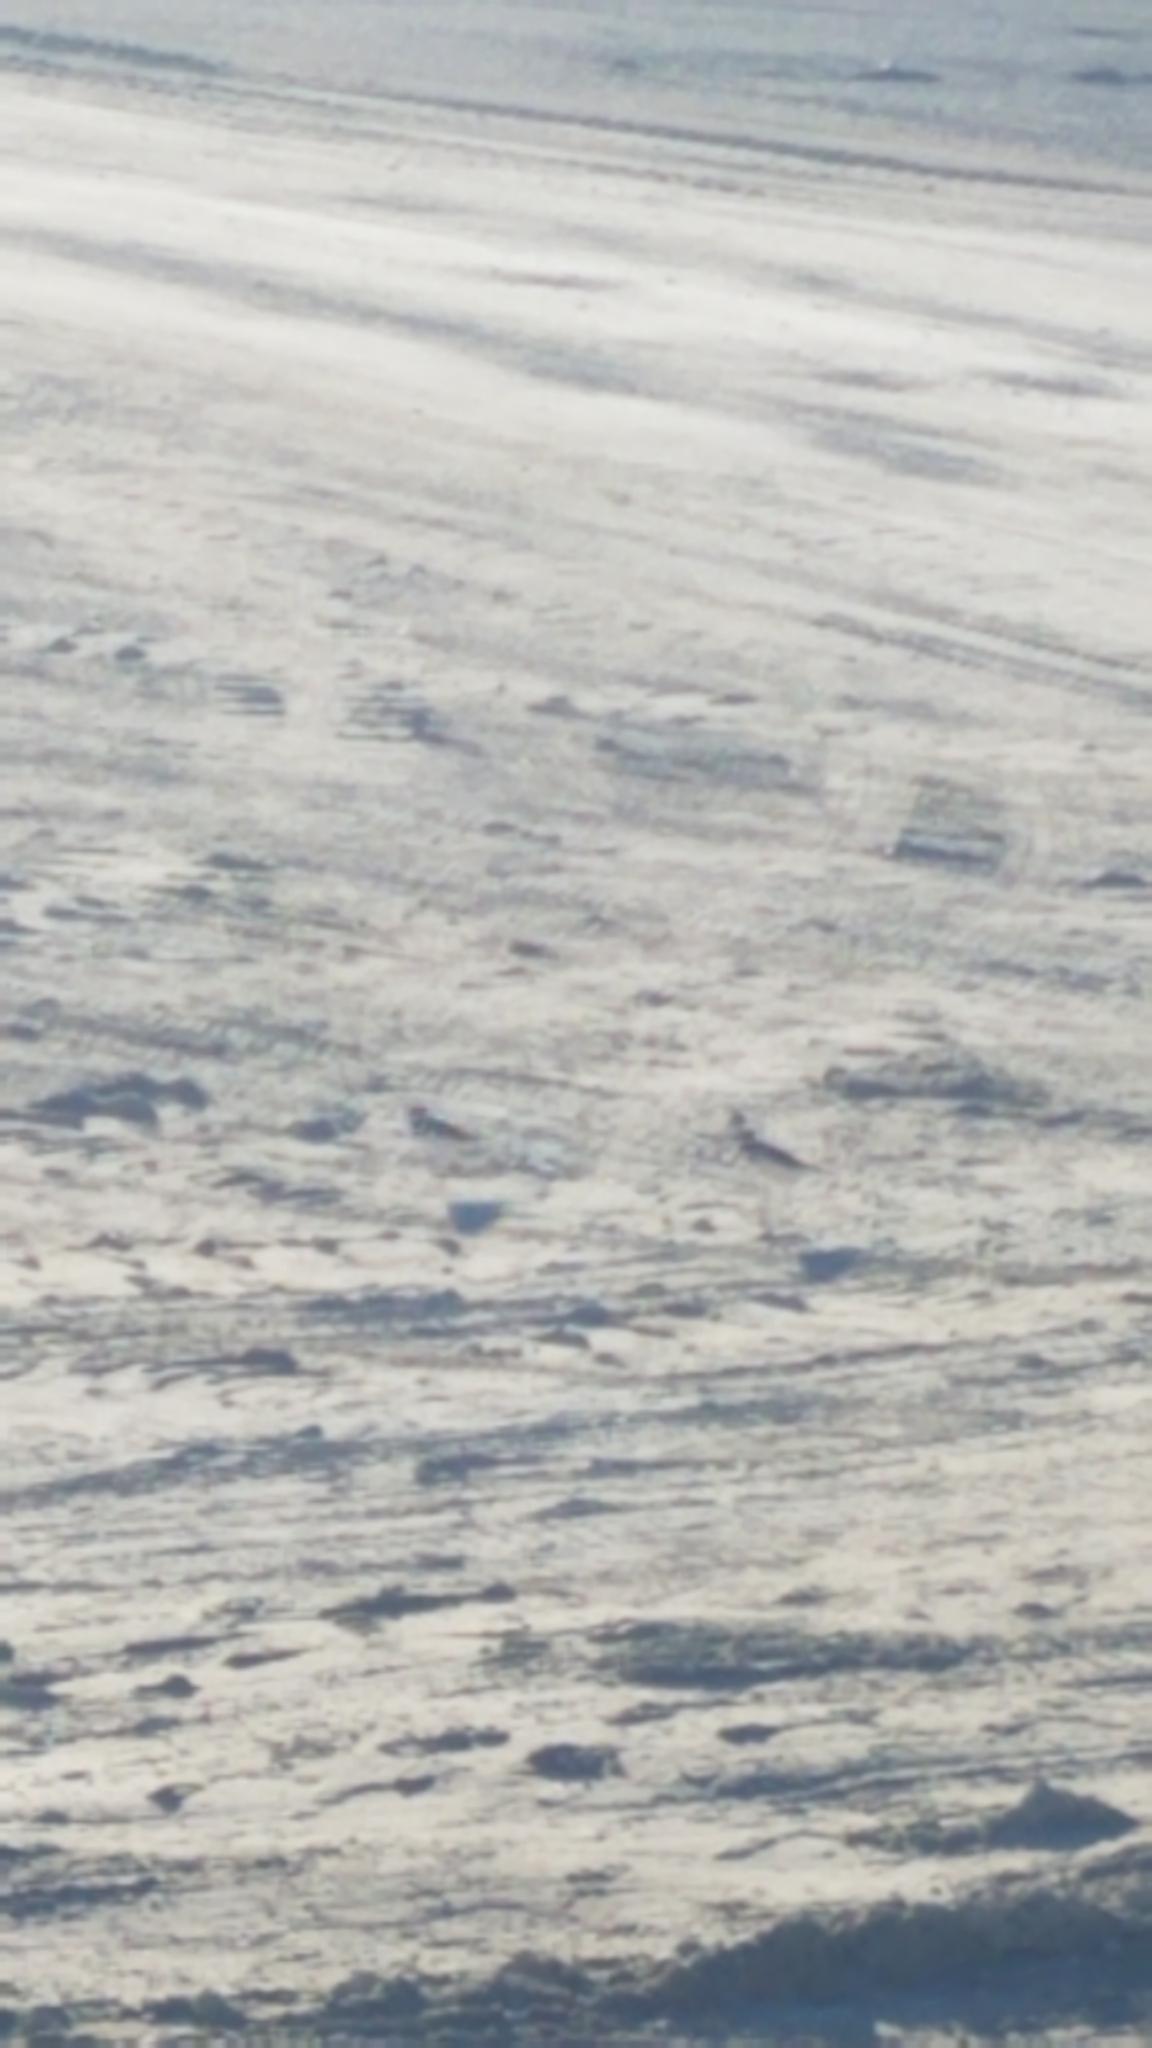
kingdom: Animalia
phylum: Chordata
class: Aves
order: Charadriiformes
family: Charadriidae
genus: Charadrius
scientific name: Charadrius vociferus
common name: Killdeer
